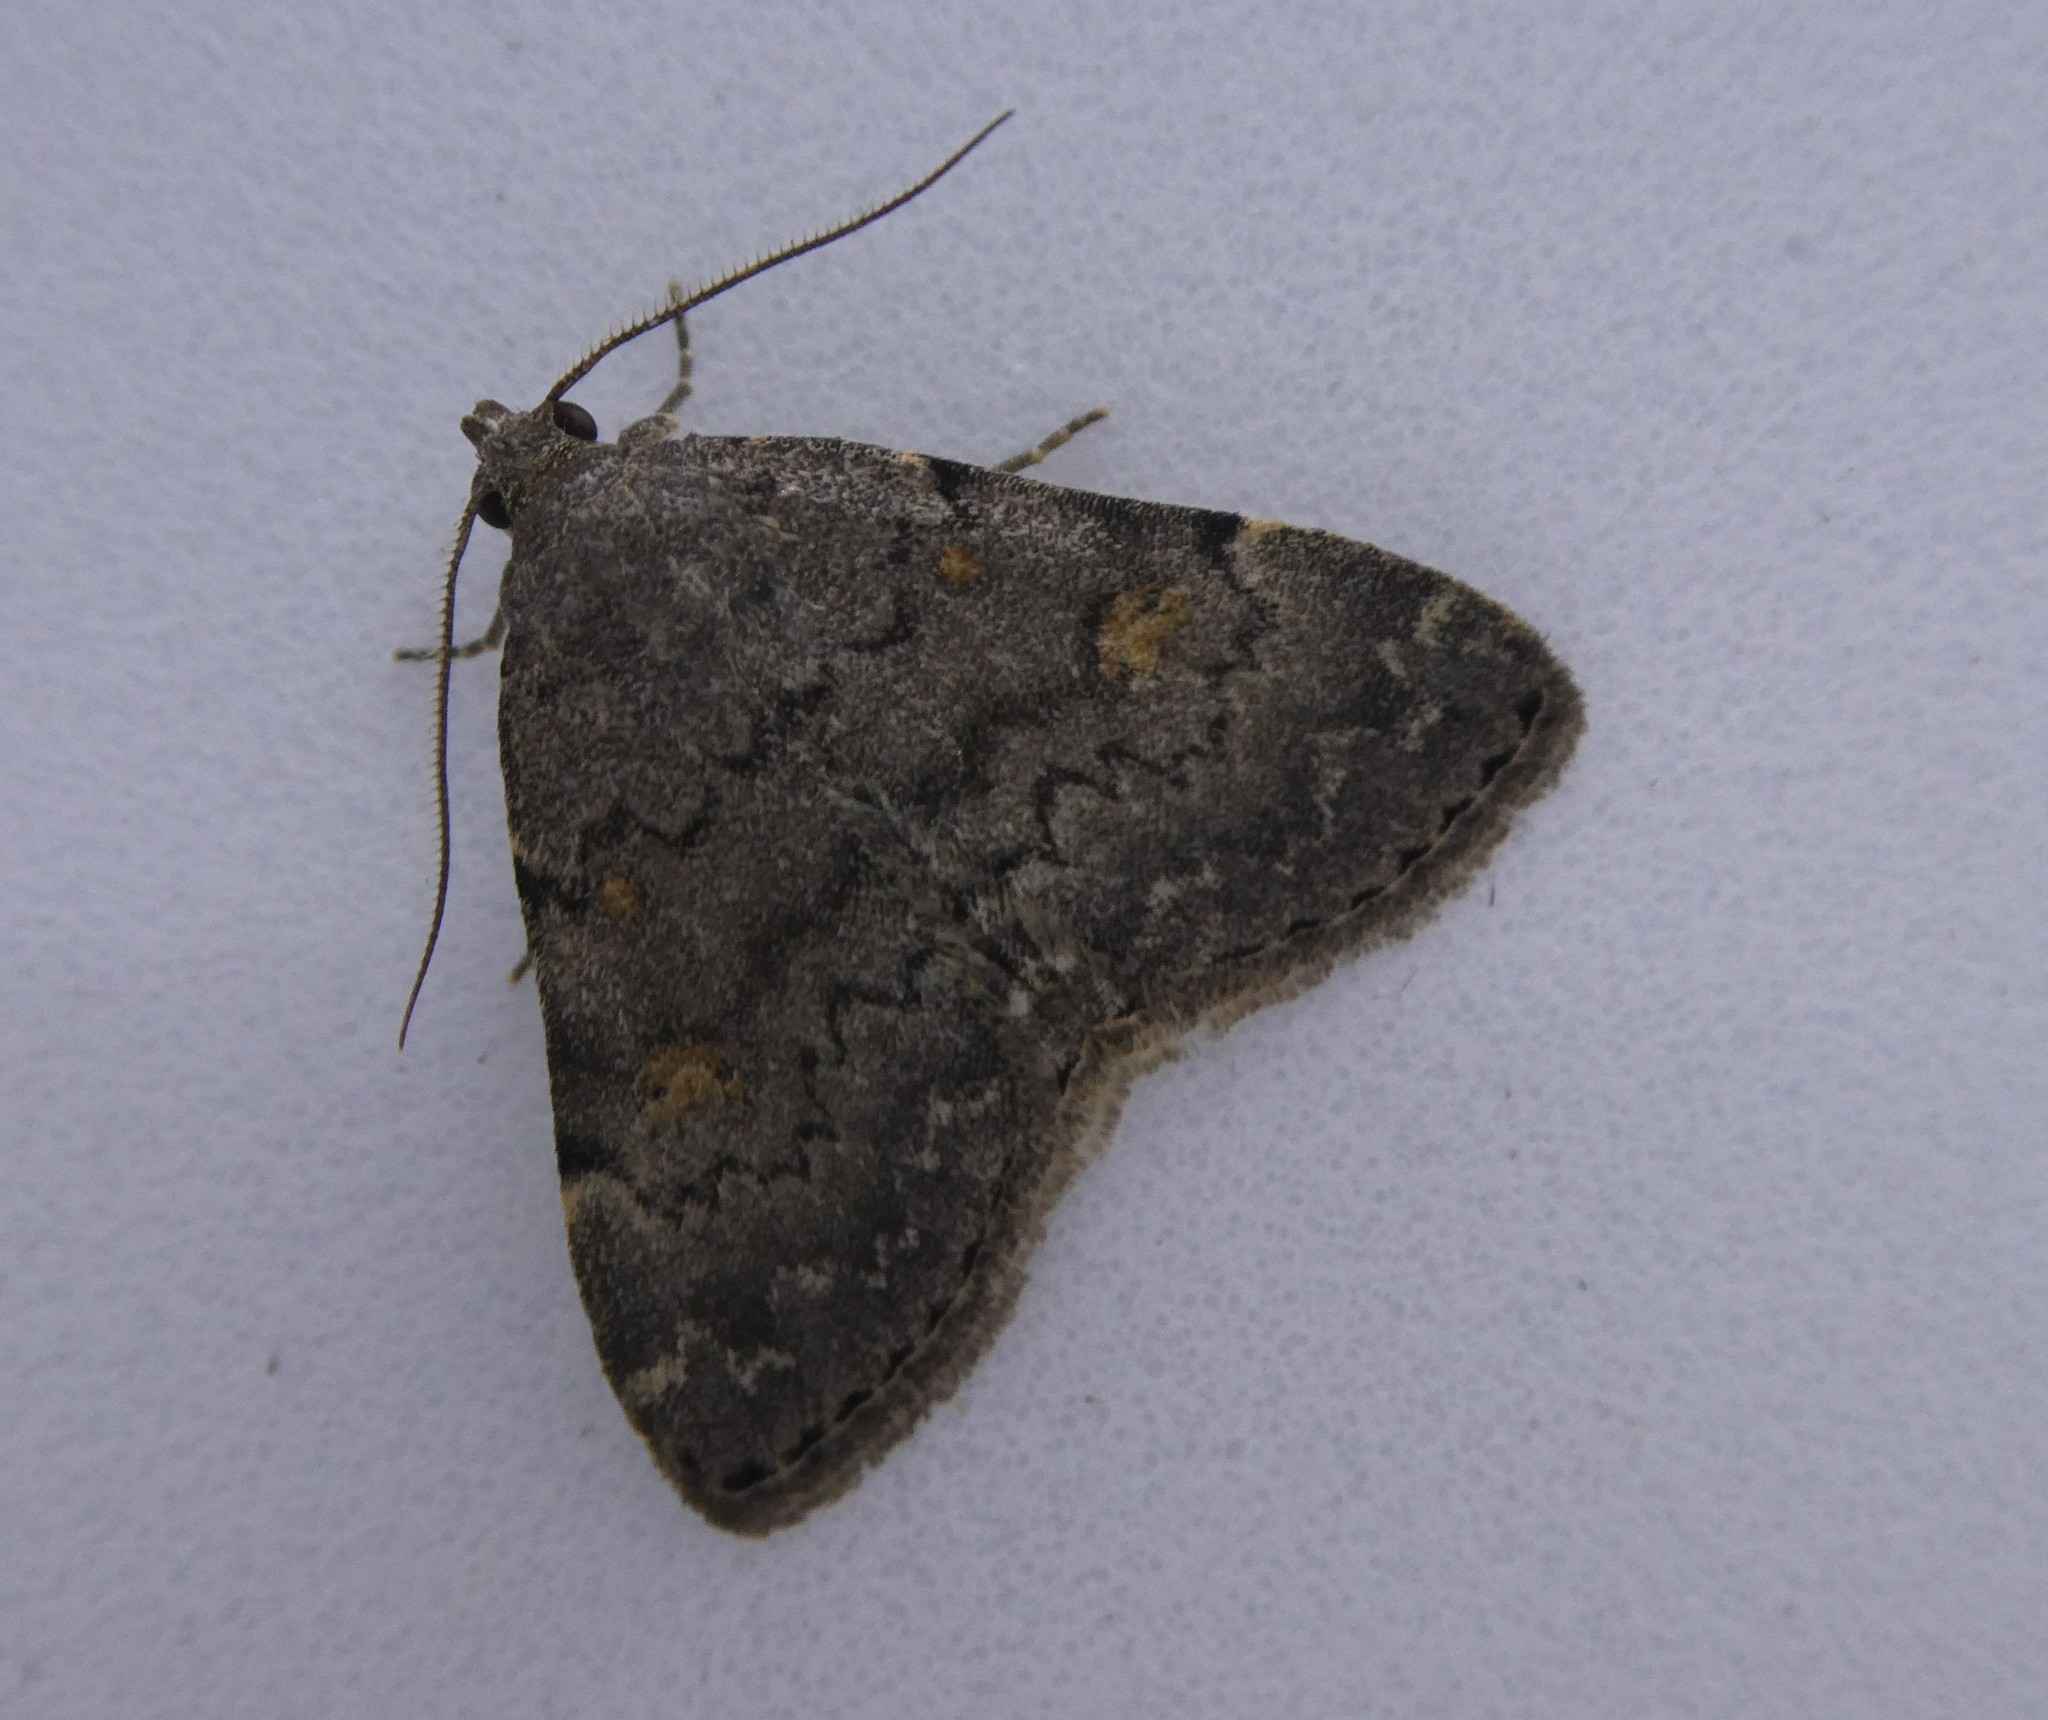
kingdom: Animalia
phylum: Arthropoda
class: Insecta
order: Lepidoptera
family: Erebidae
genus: Idia
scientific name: Idia aemula
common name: Common idia moth
